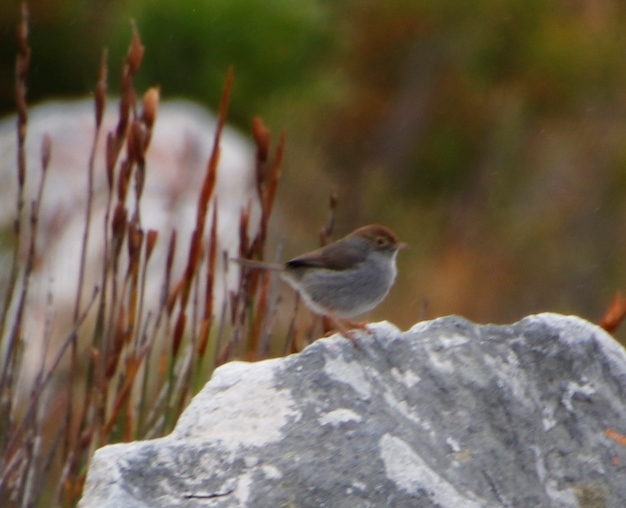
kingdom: Animalia
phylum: Chordata
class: Aves
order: Passeriformes
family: Cisticolidae
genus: Cisticola
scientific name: Cisticola fulvicapilla
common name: Neddicky
